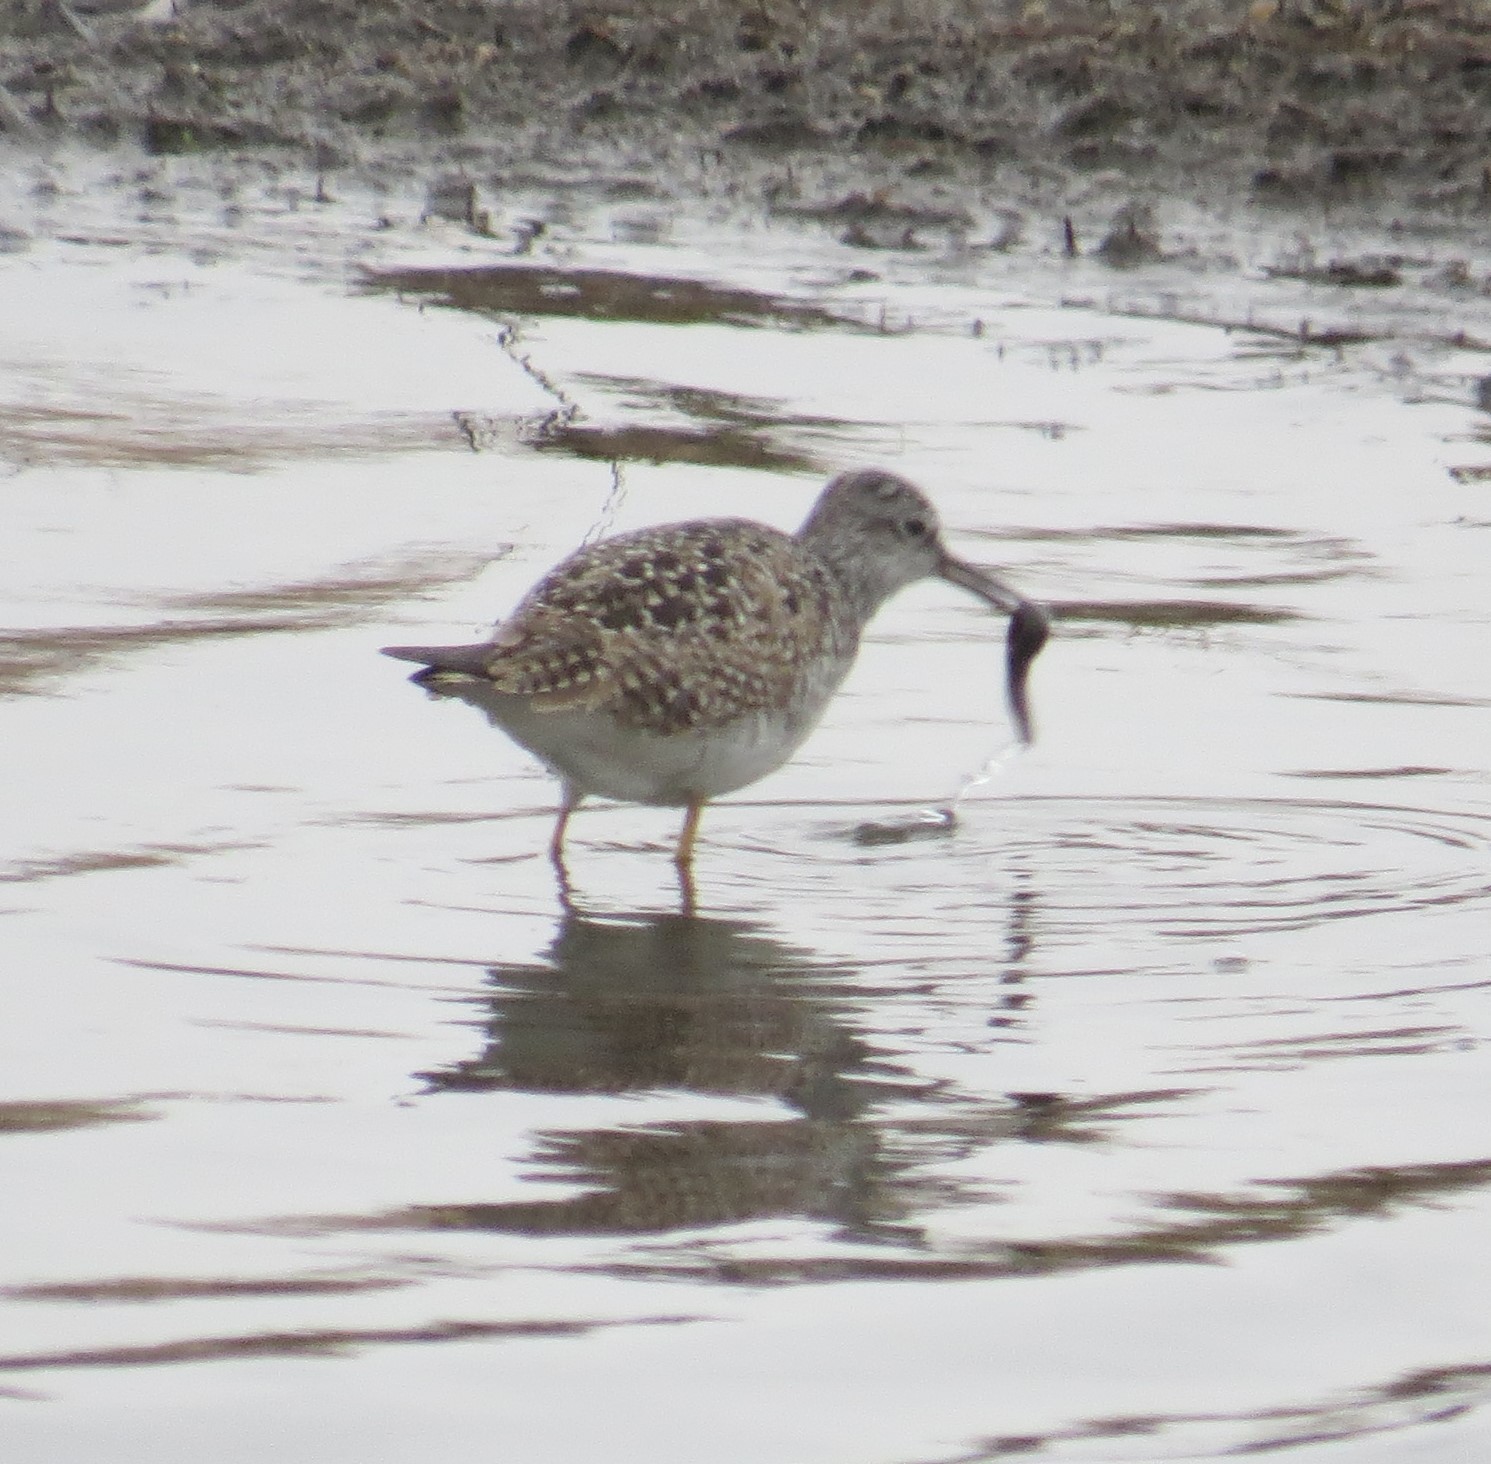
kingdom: Animalia
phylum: Chordata
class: Aves
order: Charadriiformes
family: Scolopacidae
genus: Tringa
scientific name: Tringa flavipes
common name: Lesser yellowlegs
